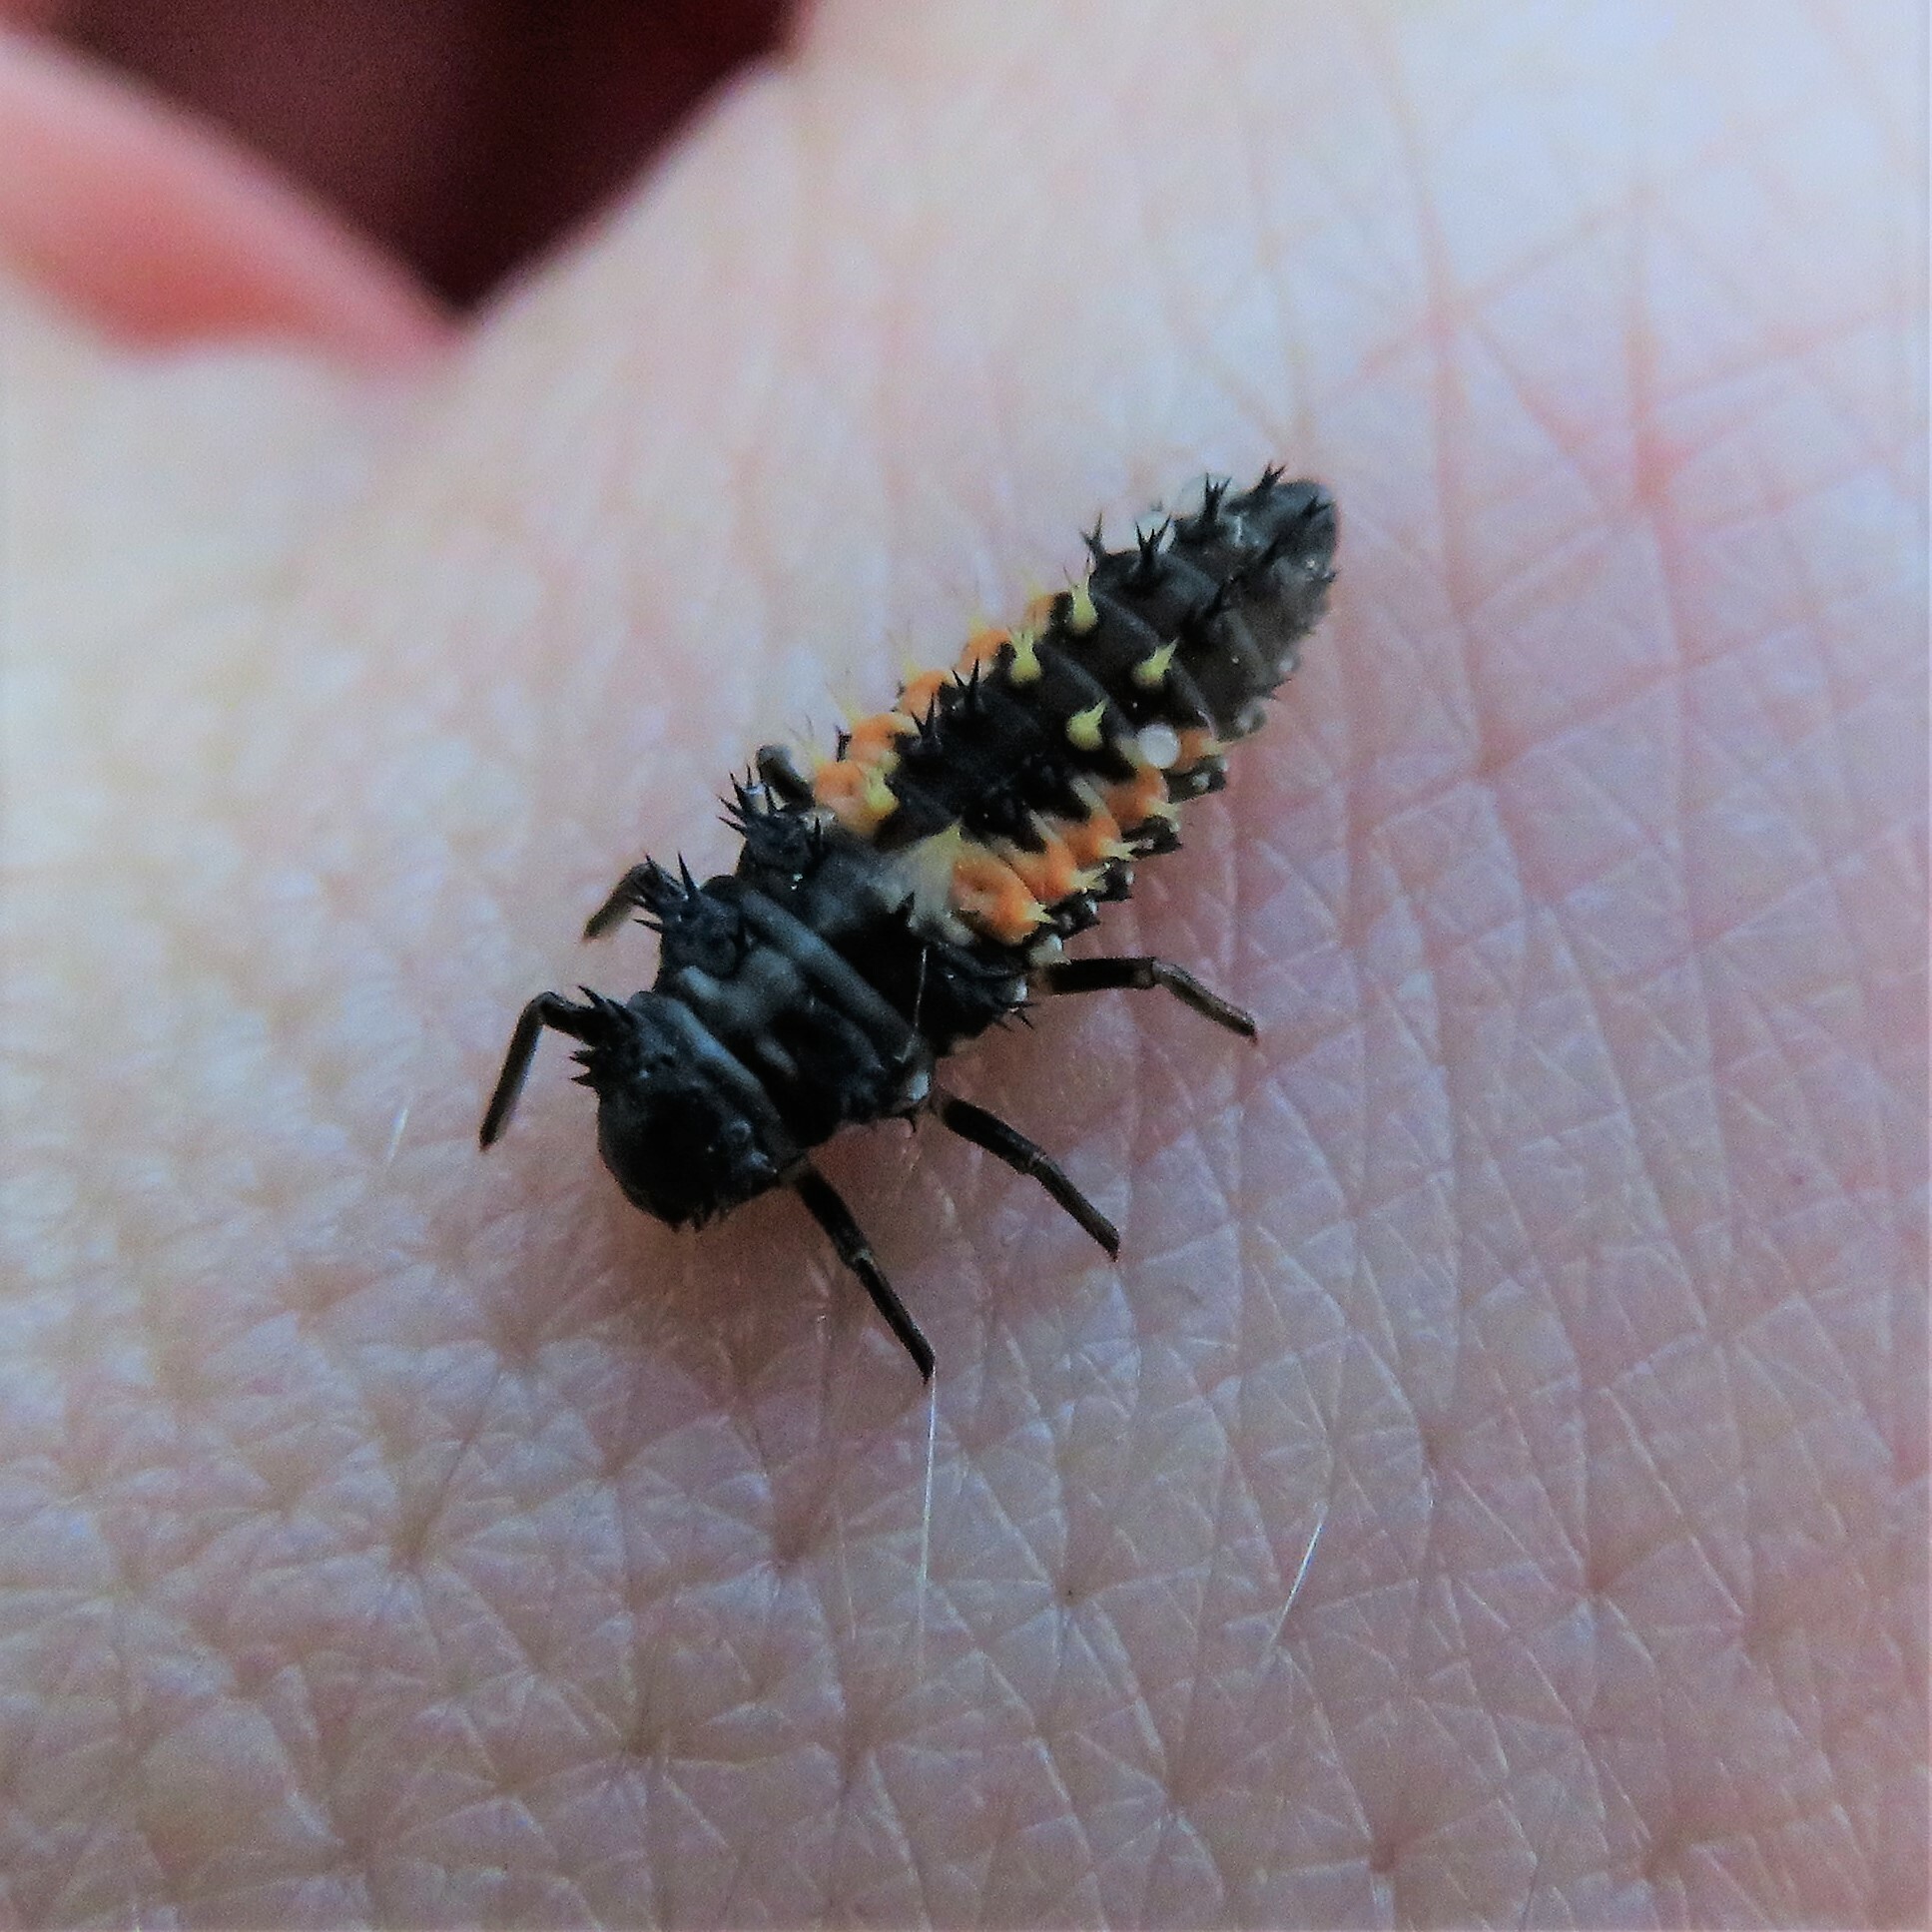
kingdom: Animalia
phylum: Arthropoda
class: Insecta
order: Coleoptera
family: Coccinellidae
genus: Harmonia
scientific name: Harmonia axyridis
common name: Harlequin ladybird
